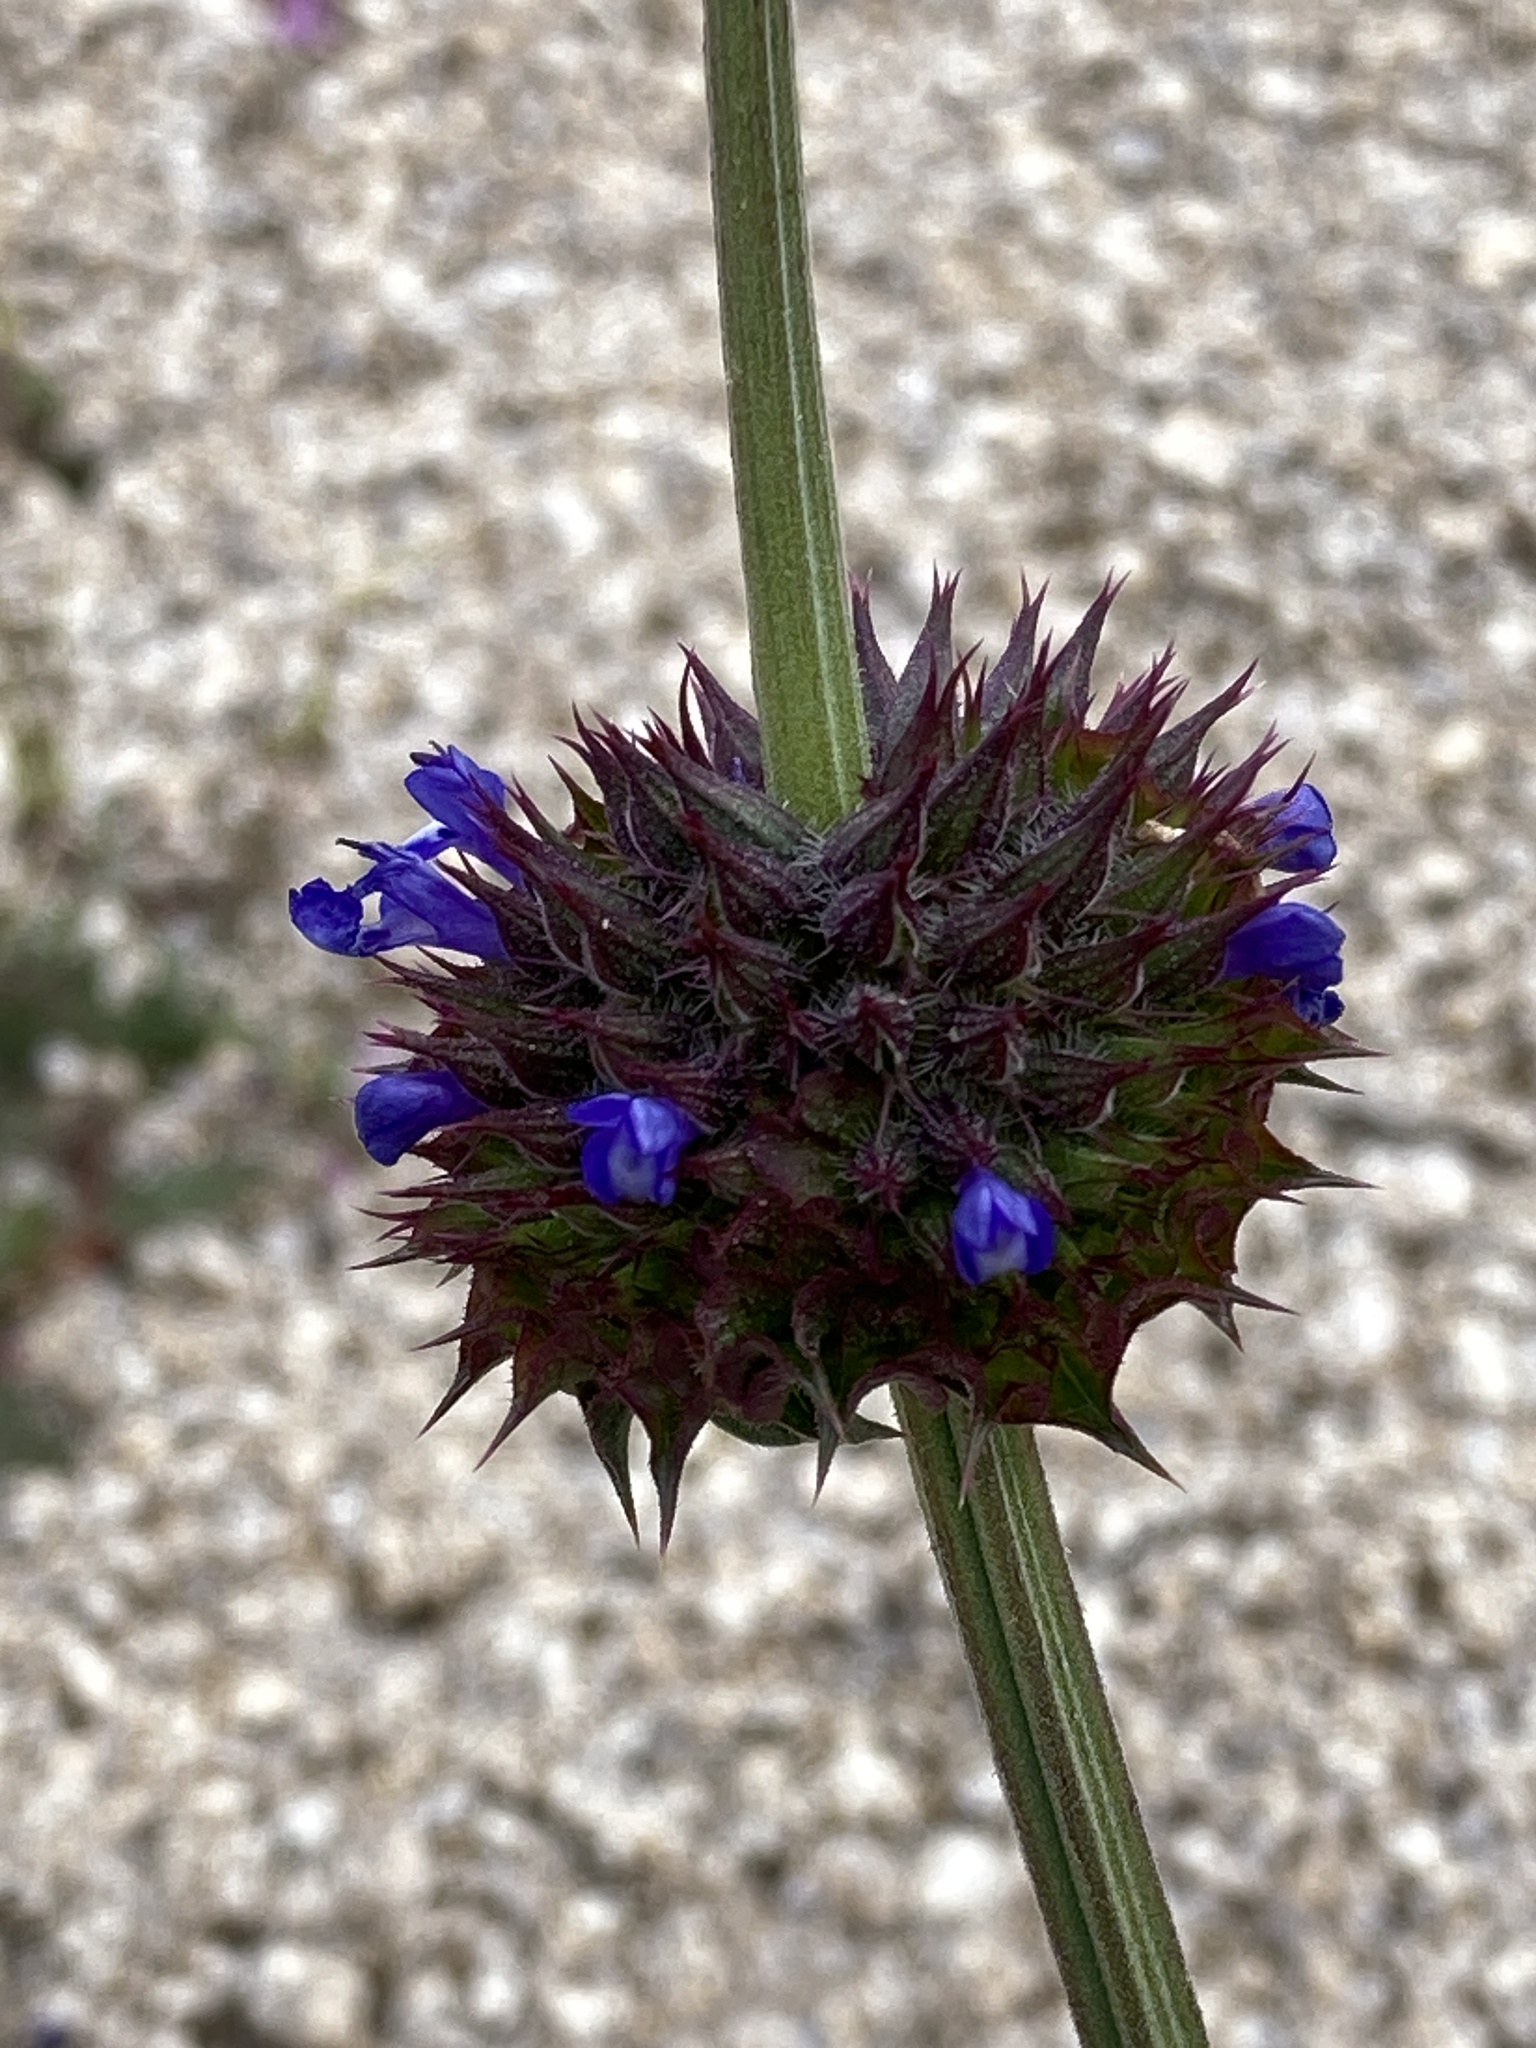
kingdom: Plantae
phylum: Tracheophyta
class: Magnoliopsida
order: Lamiales
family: Lamiaceae
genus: Salvia
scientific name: Salvia columbariae
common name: Chia
